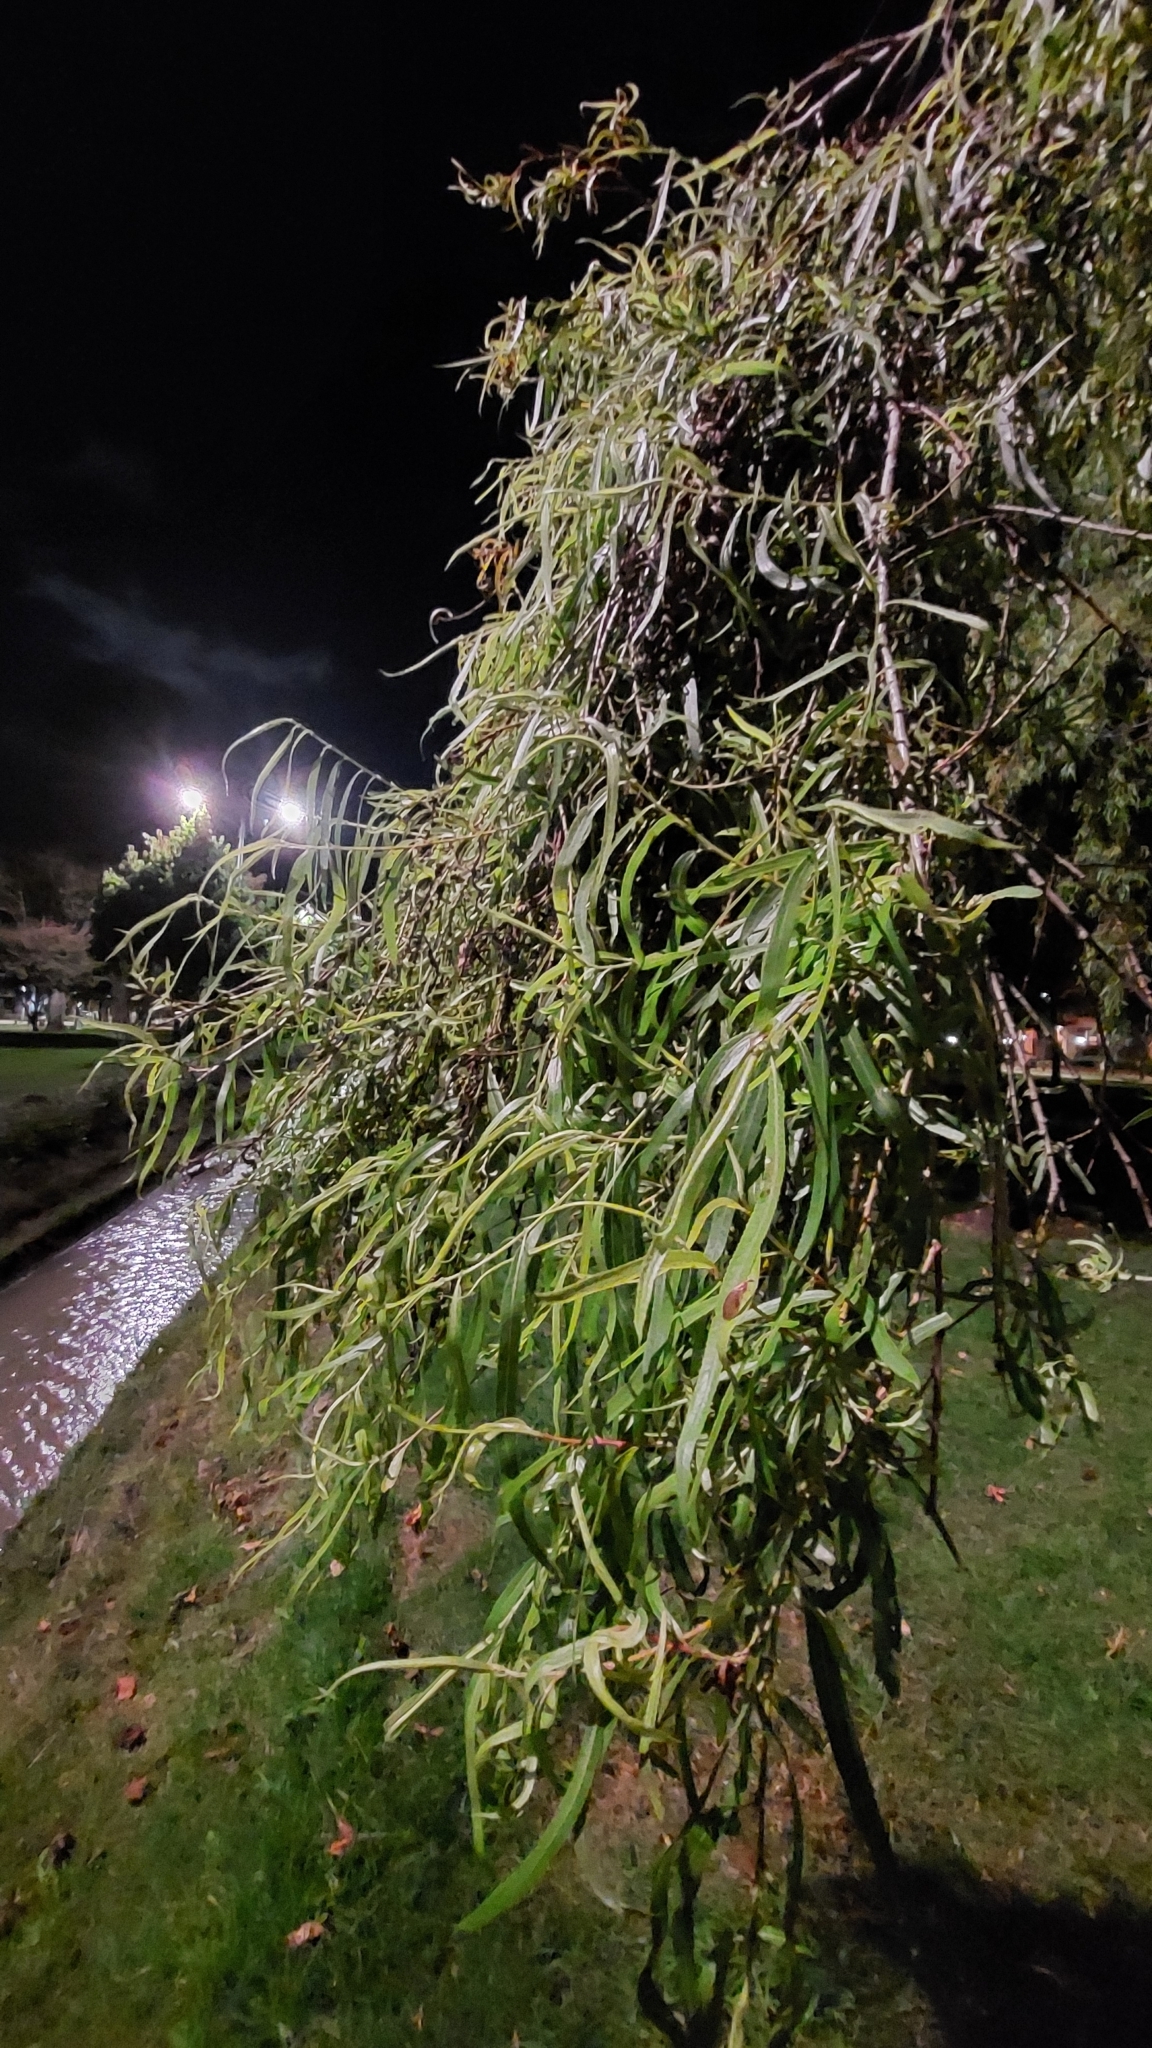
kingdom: Plantae
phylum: Tracheophyta
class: Magnoliopsida
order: Malpighiales
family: Salicaceae
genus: Salix
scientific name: Salix humboldtiana
